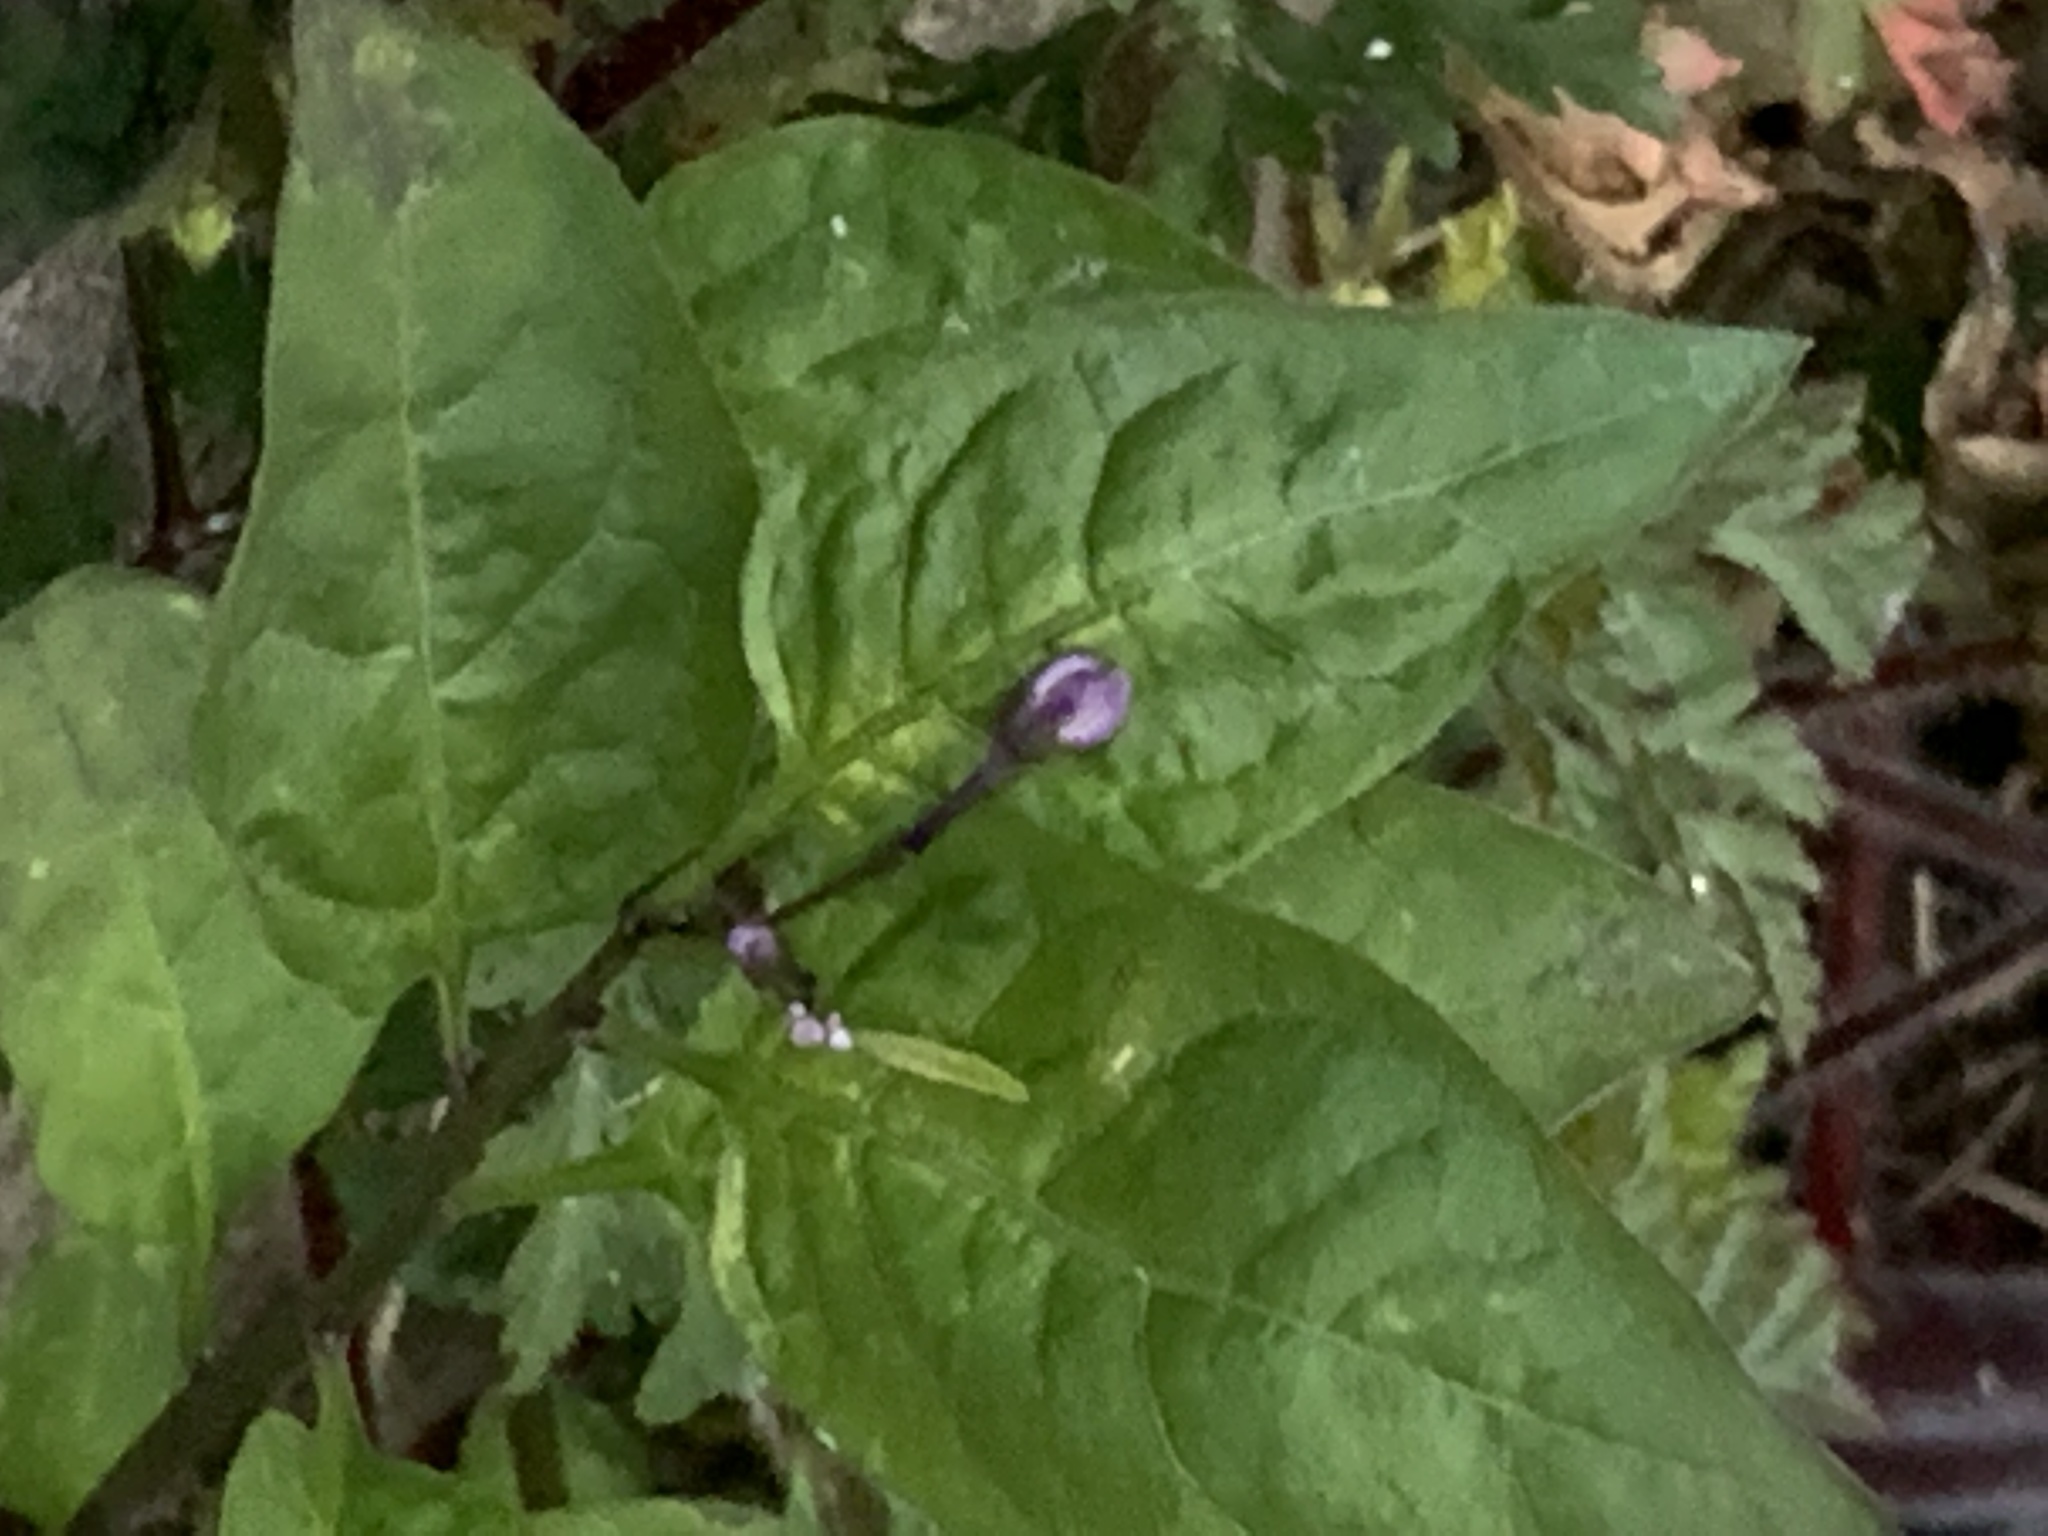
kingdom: Plantae
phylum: Tracheophyta
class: Magnoliopsida
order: Solanales
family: Solanaceae
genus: Solanum
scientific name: Solanum dulcamara
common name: Climbing nightshade
